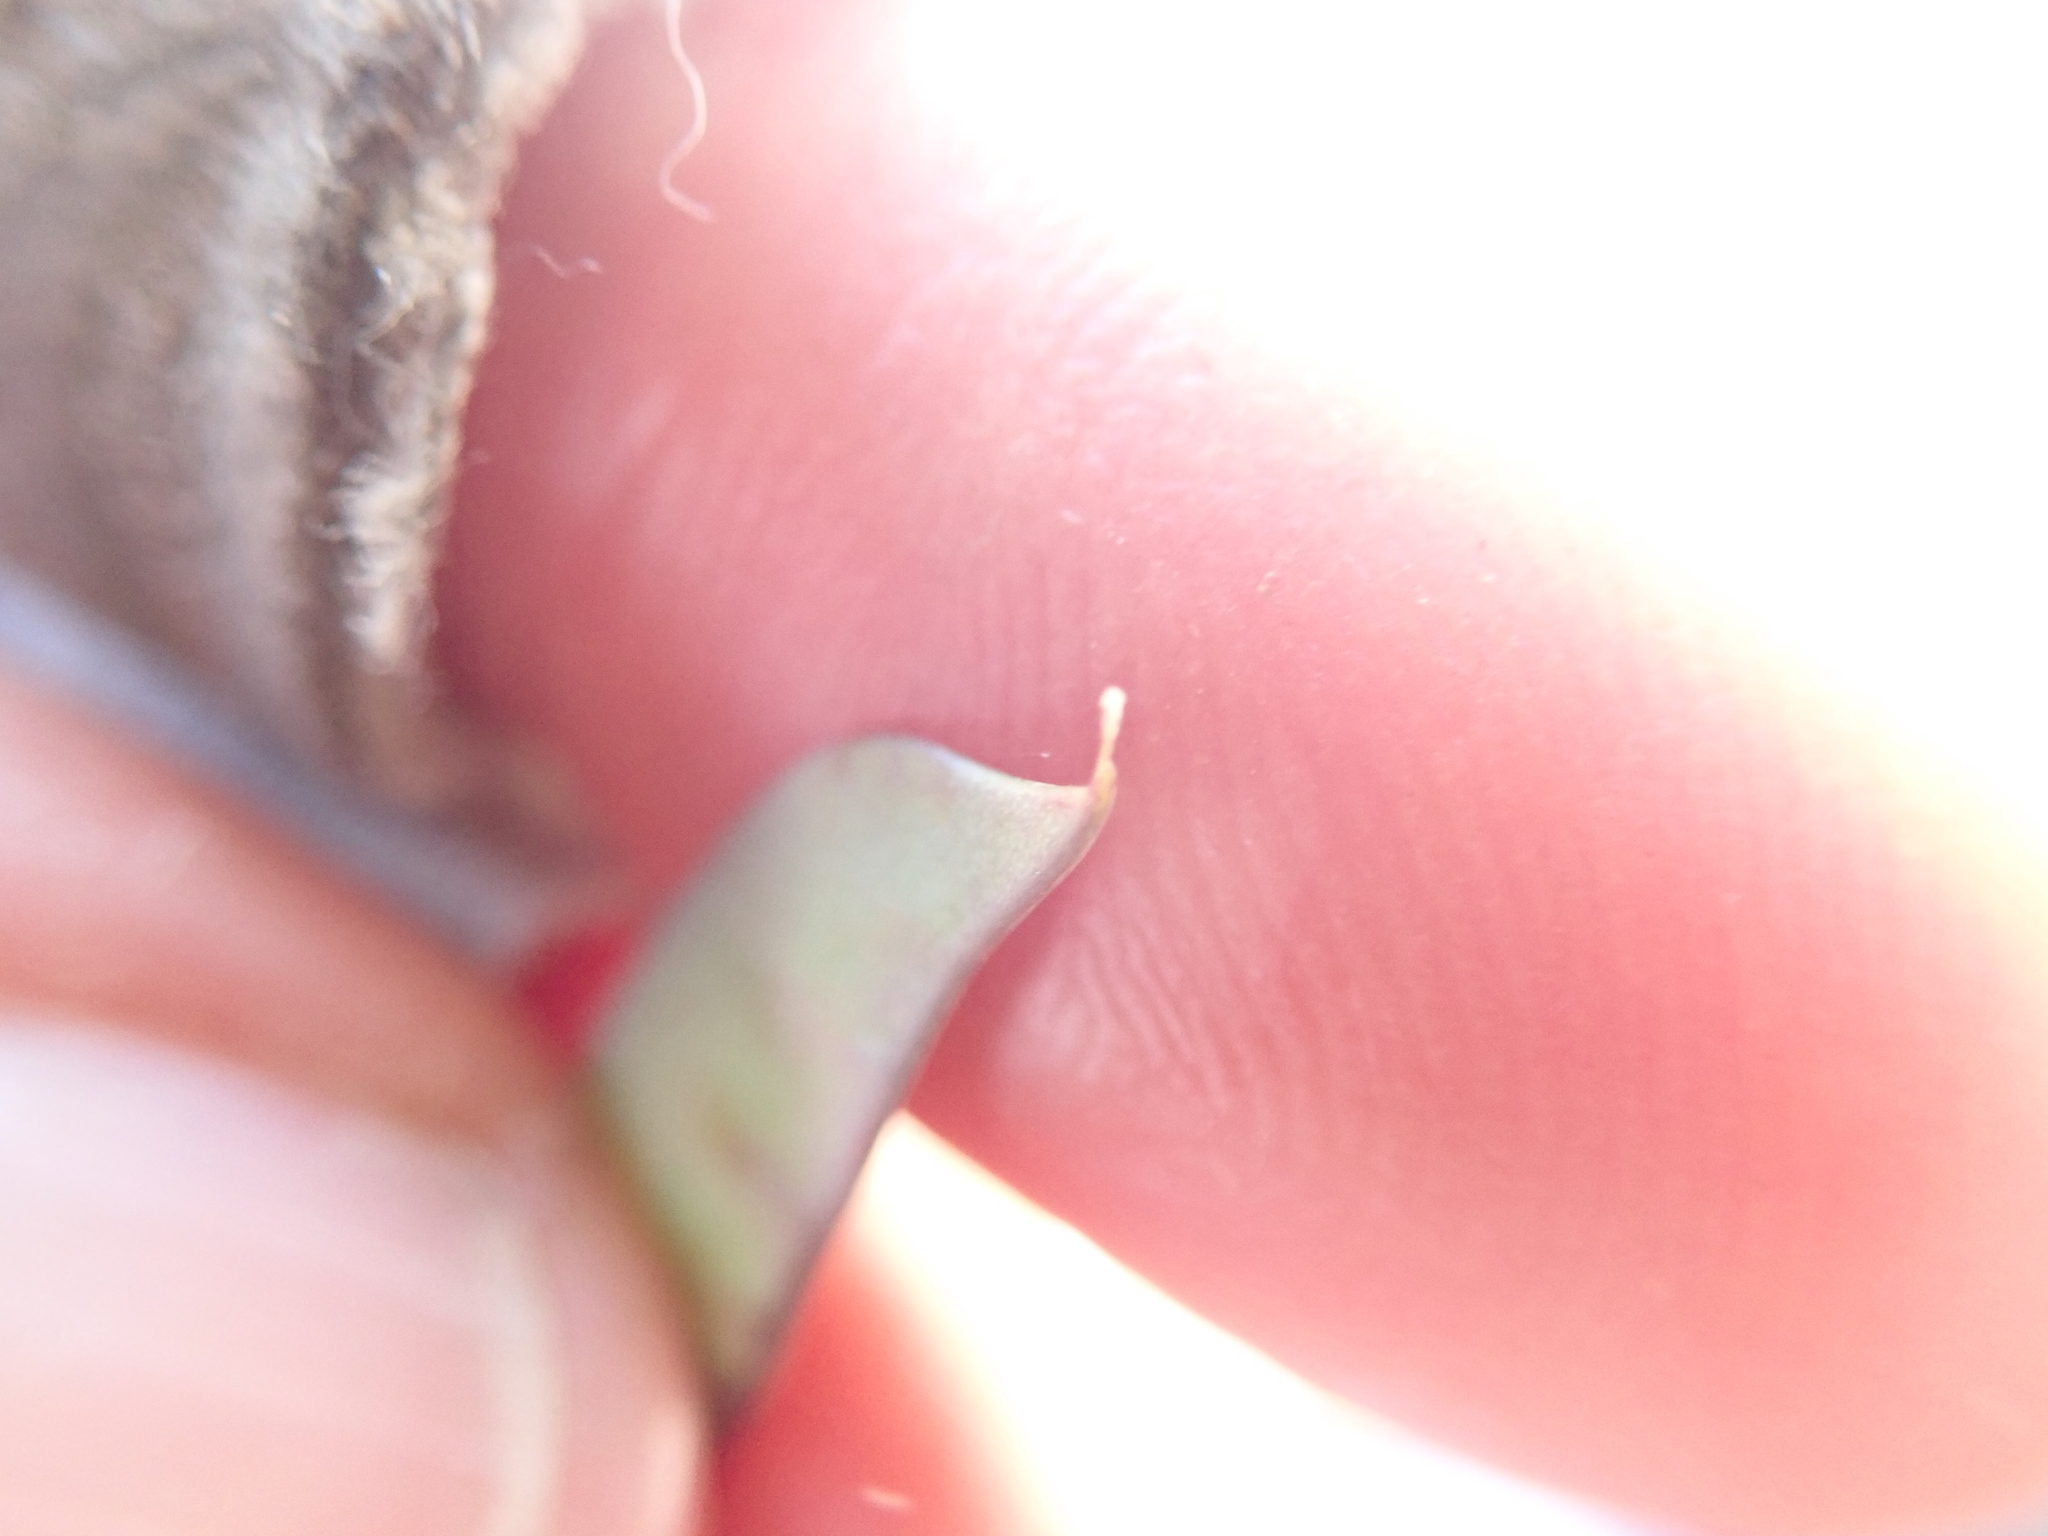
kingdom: Plantae
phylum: Tracheophyta
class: Magnoliopsida
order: Fabales
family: Fabaceae
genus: Vicia
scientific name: Vicia ludoviciana
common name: Louisiana vetch
